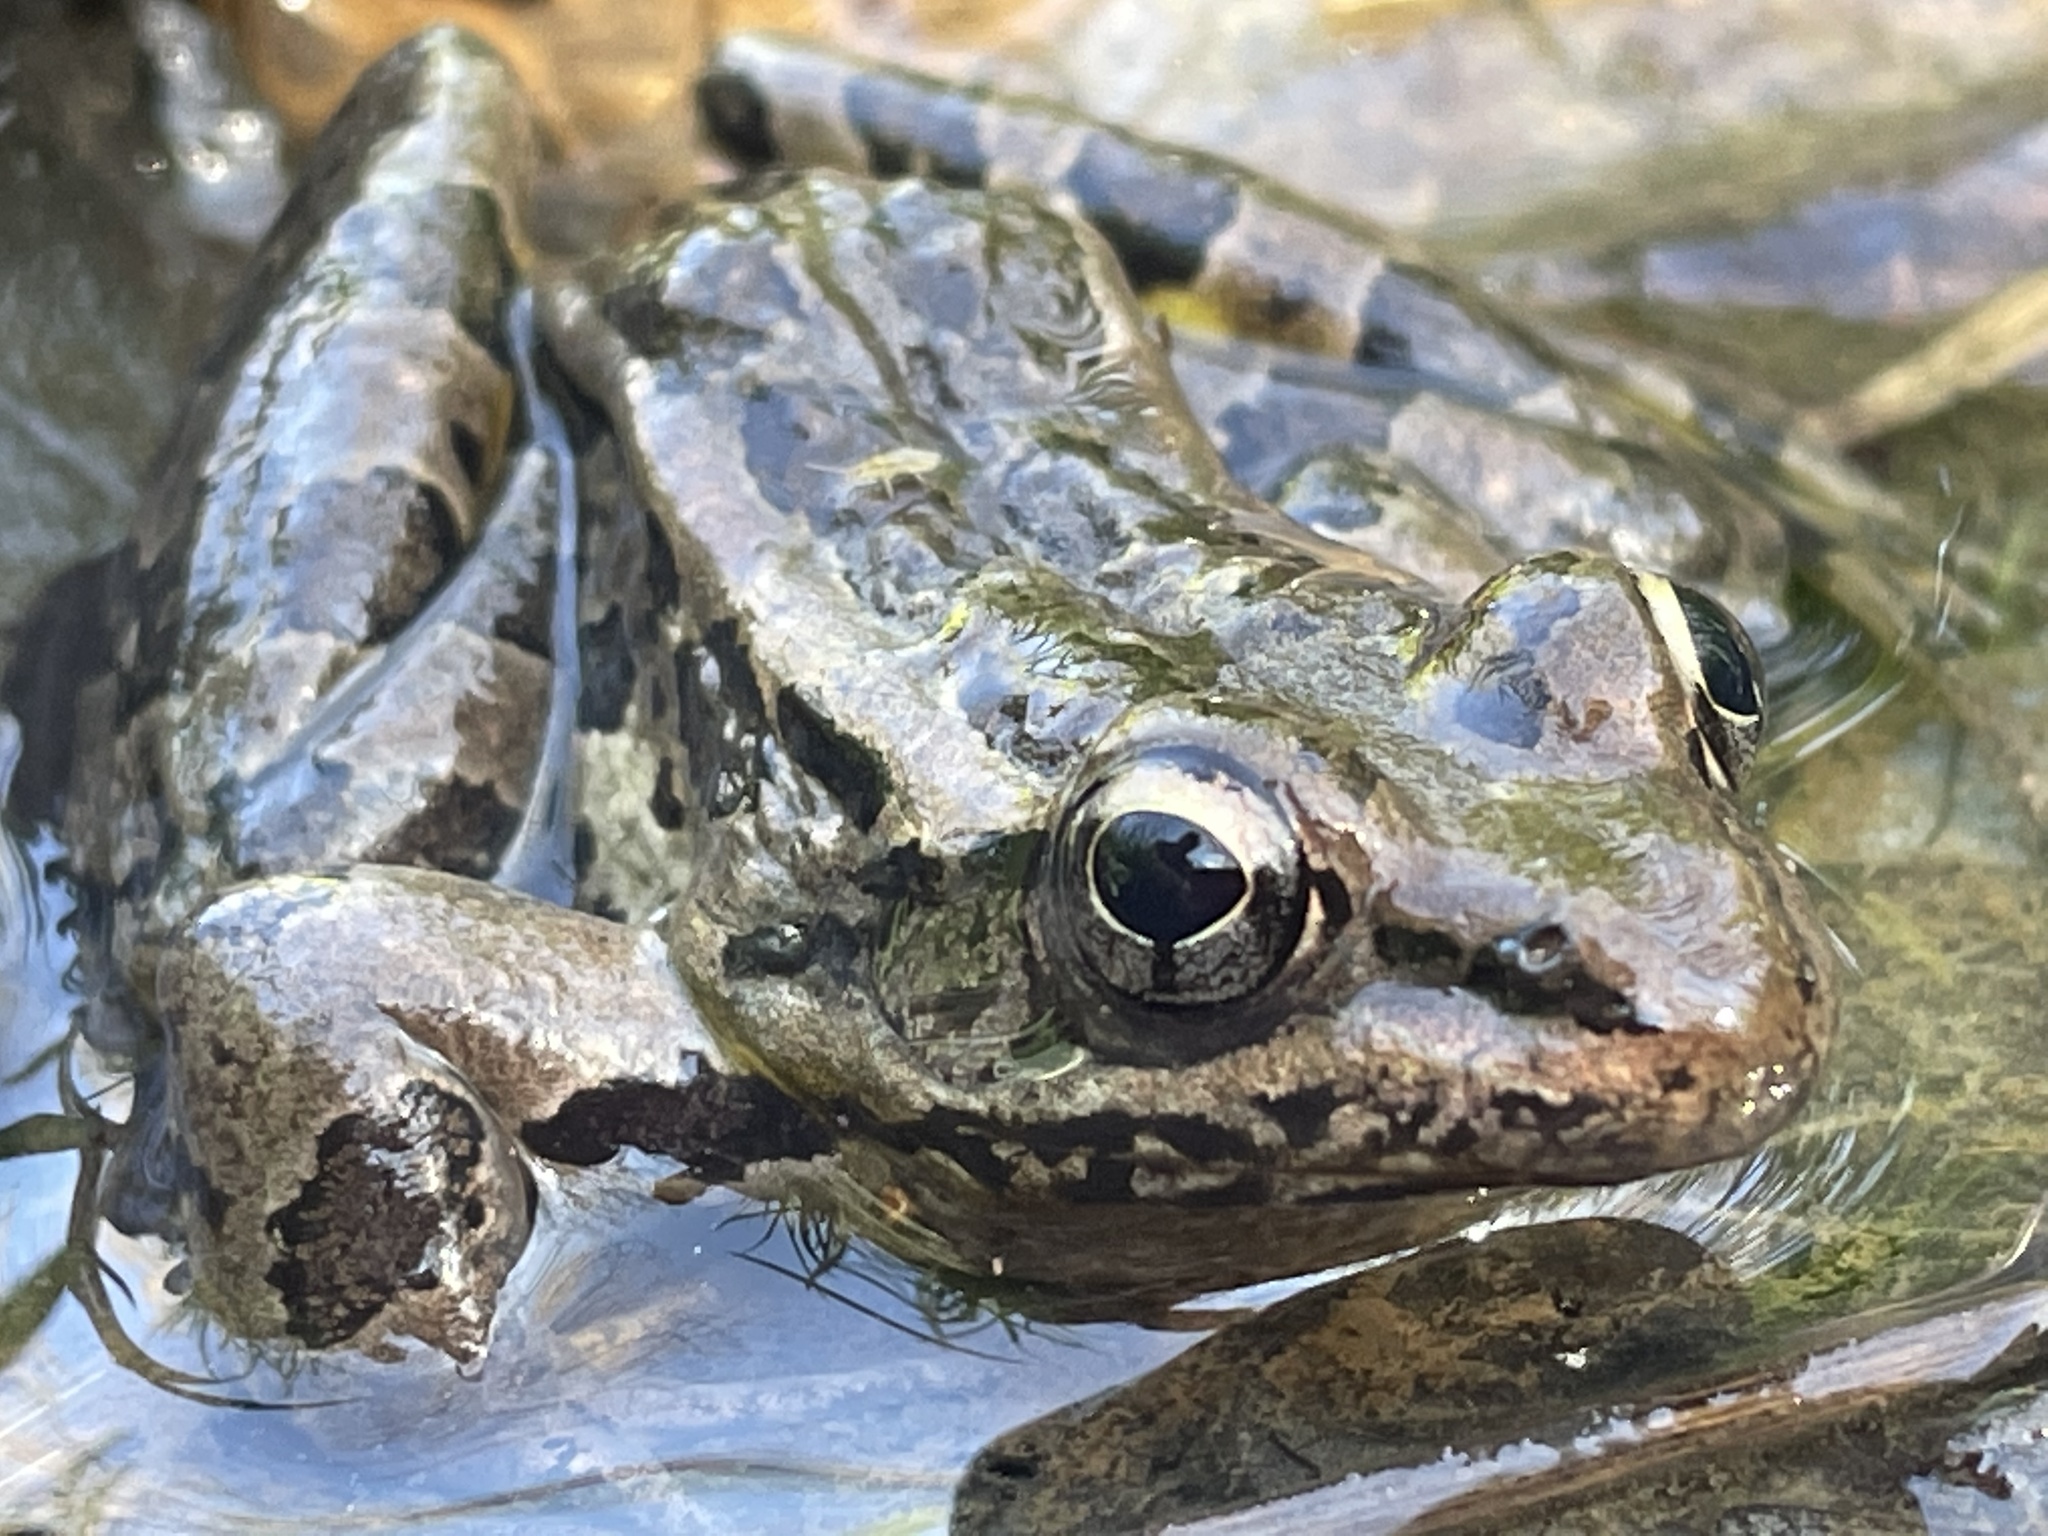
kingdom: Animalia
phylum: Chordata
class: Amphibia
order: Anura
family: Ranidae
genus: Lithobates
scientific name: Lithobates palustris
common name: Pickerel frog
